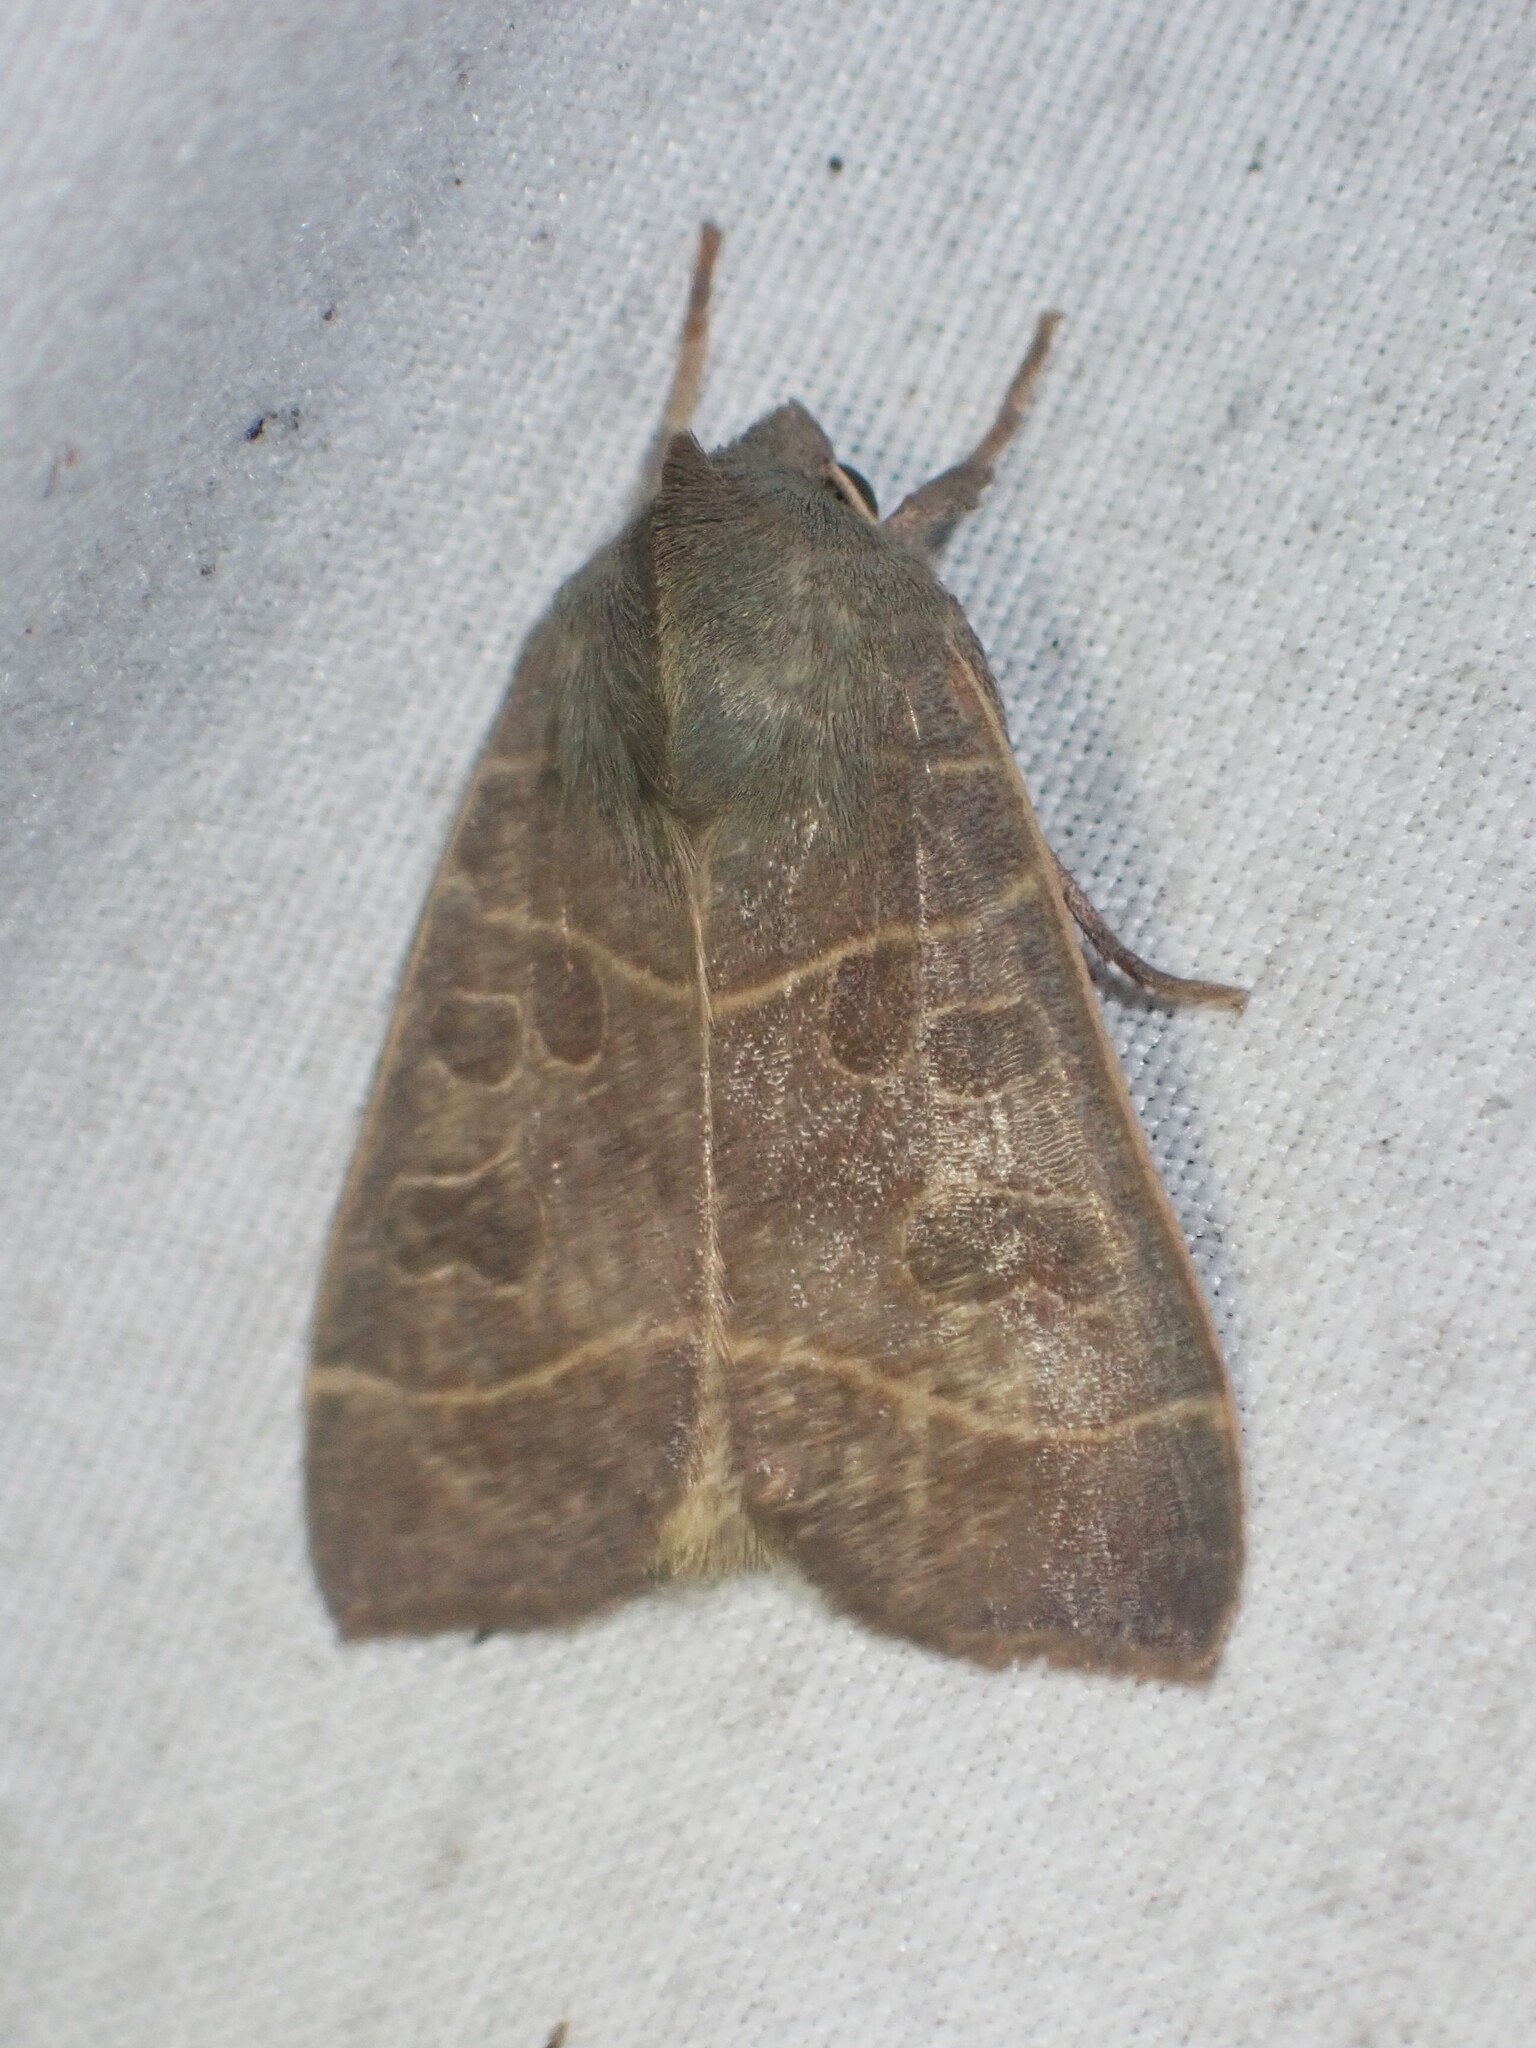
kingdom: Animalia
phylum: Arthropoda
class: Insecta
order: Lepidoptera
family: Noctuidae
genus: Ipimorpha
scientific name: Ipimorpha pleonectusa
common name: Even-lined sallow
